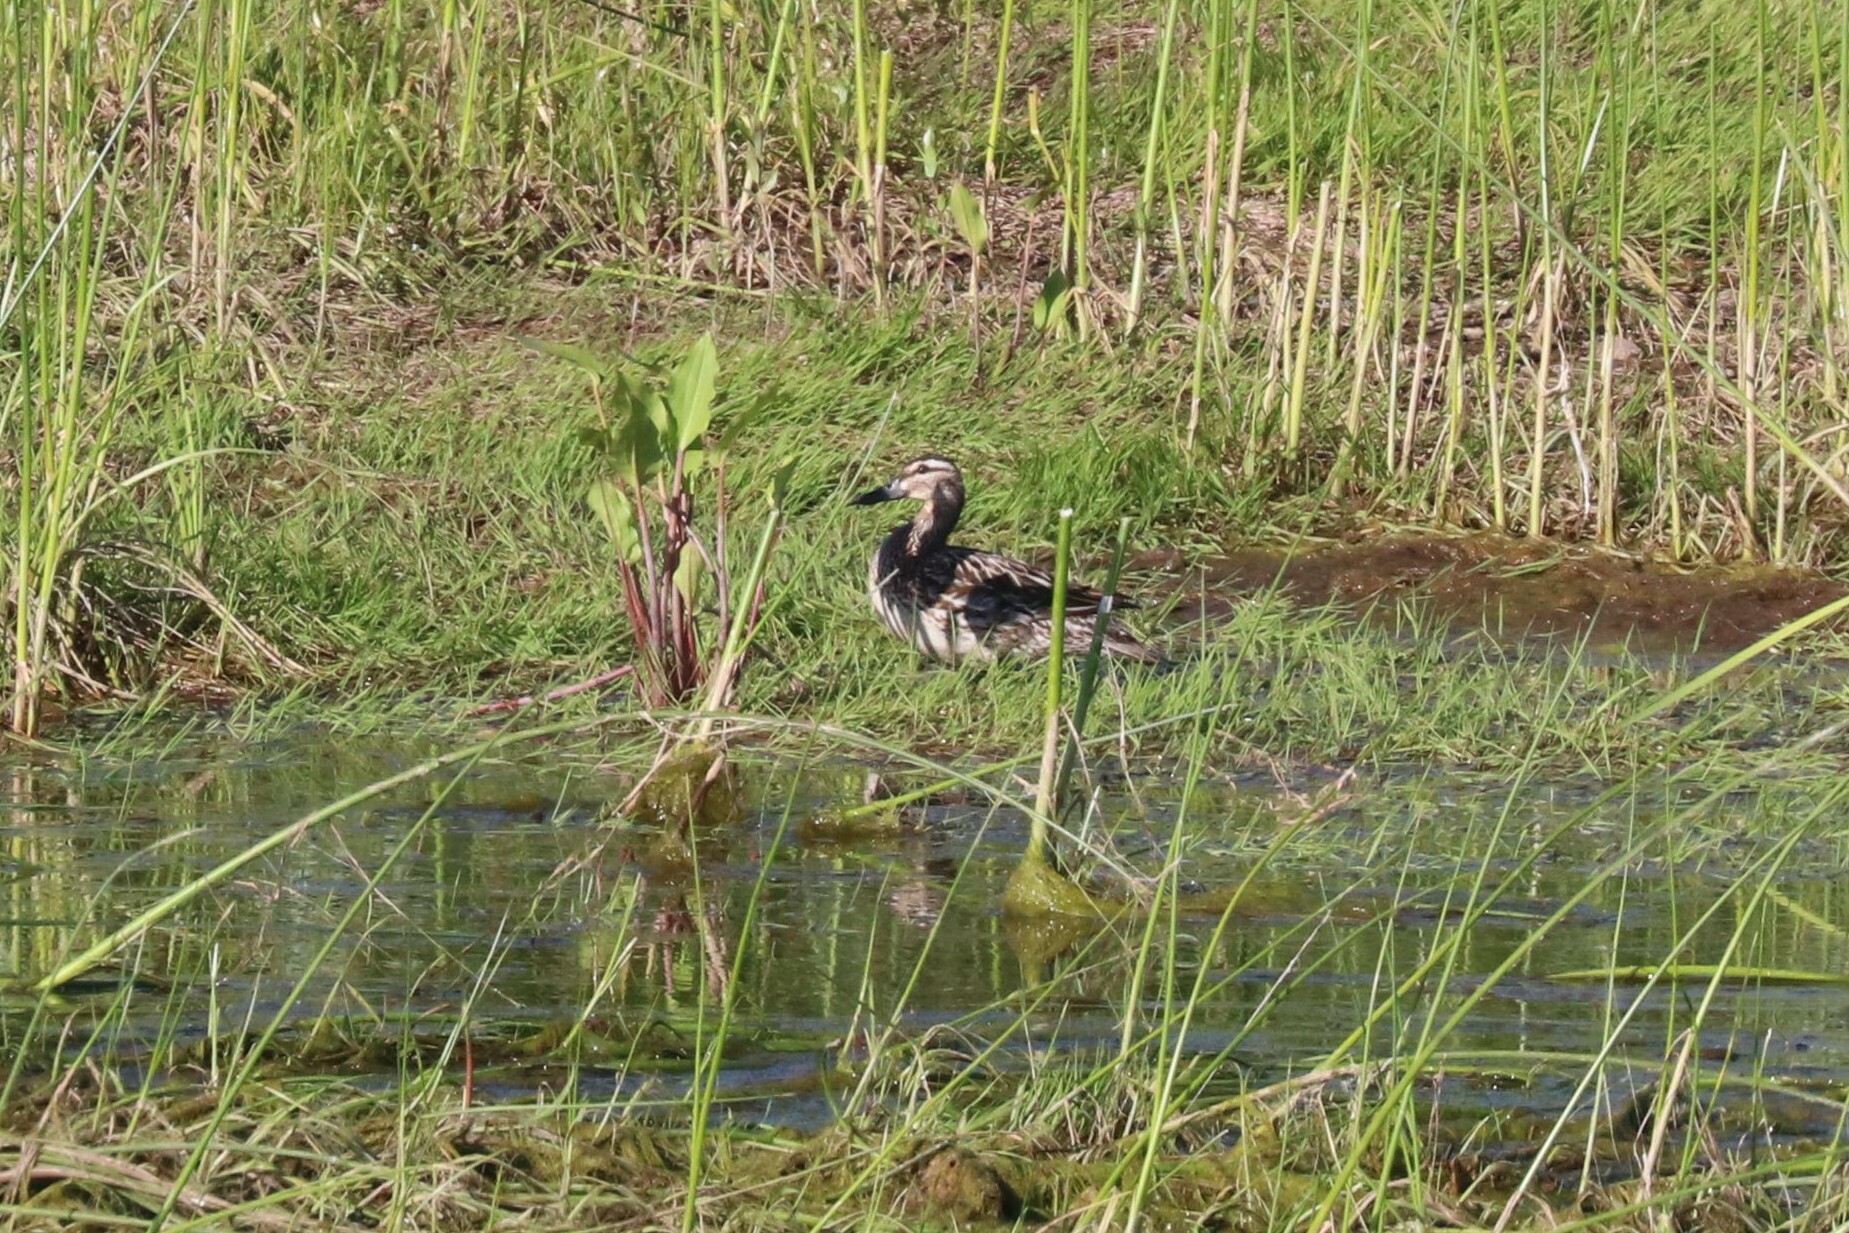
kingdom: Animalia
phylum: Chordata
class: Aves
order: Anseriformes
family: Anatidae
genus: Spatula
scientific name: Spatula querquedula
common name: Garganey
